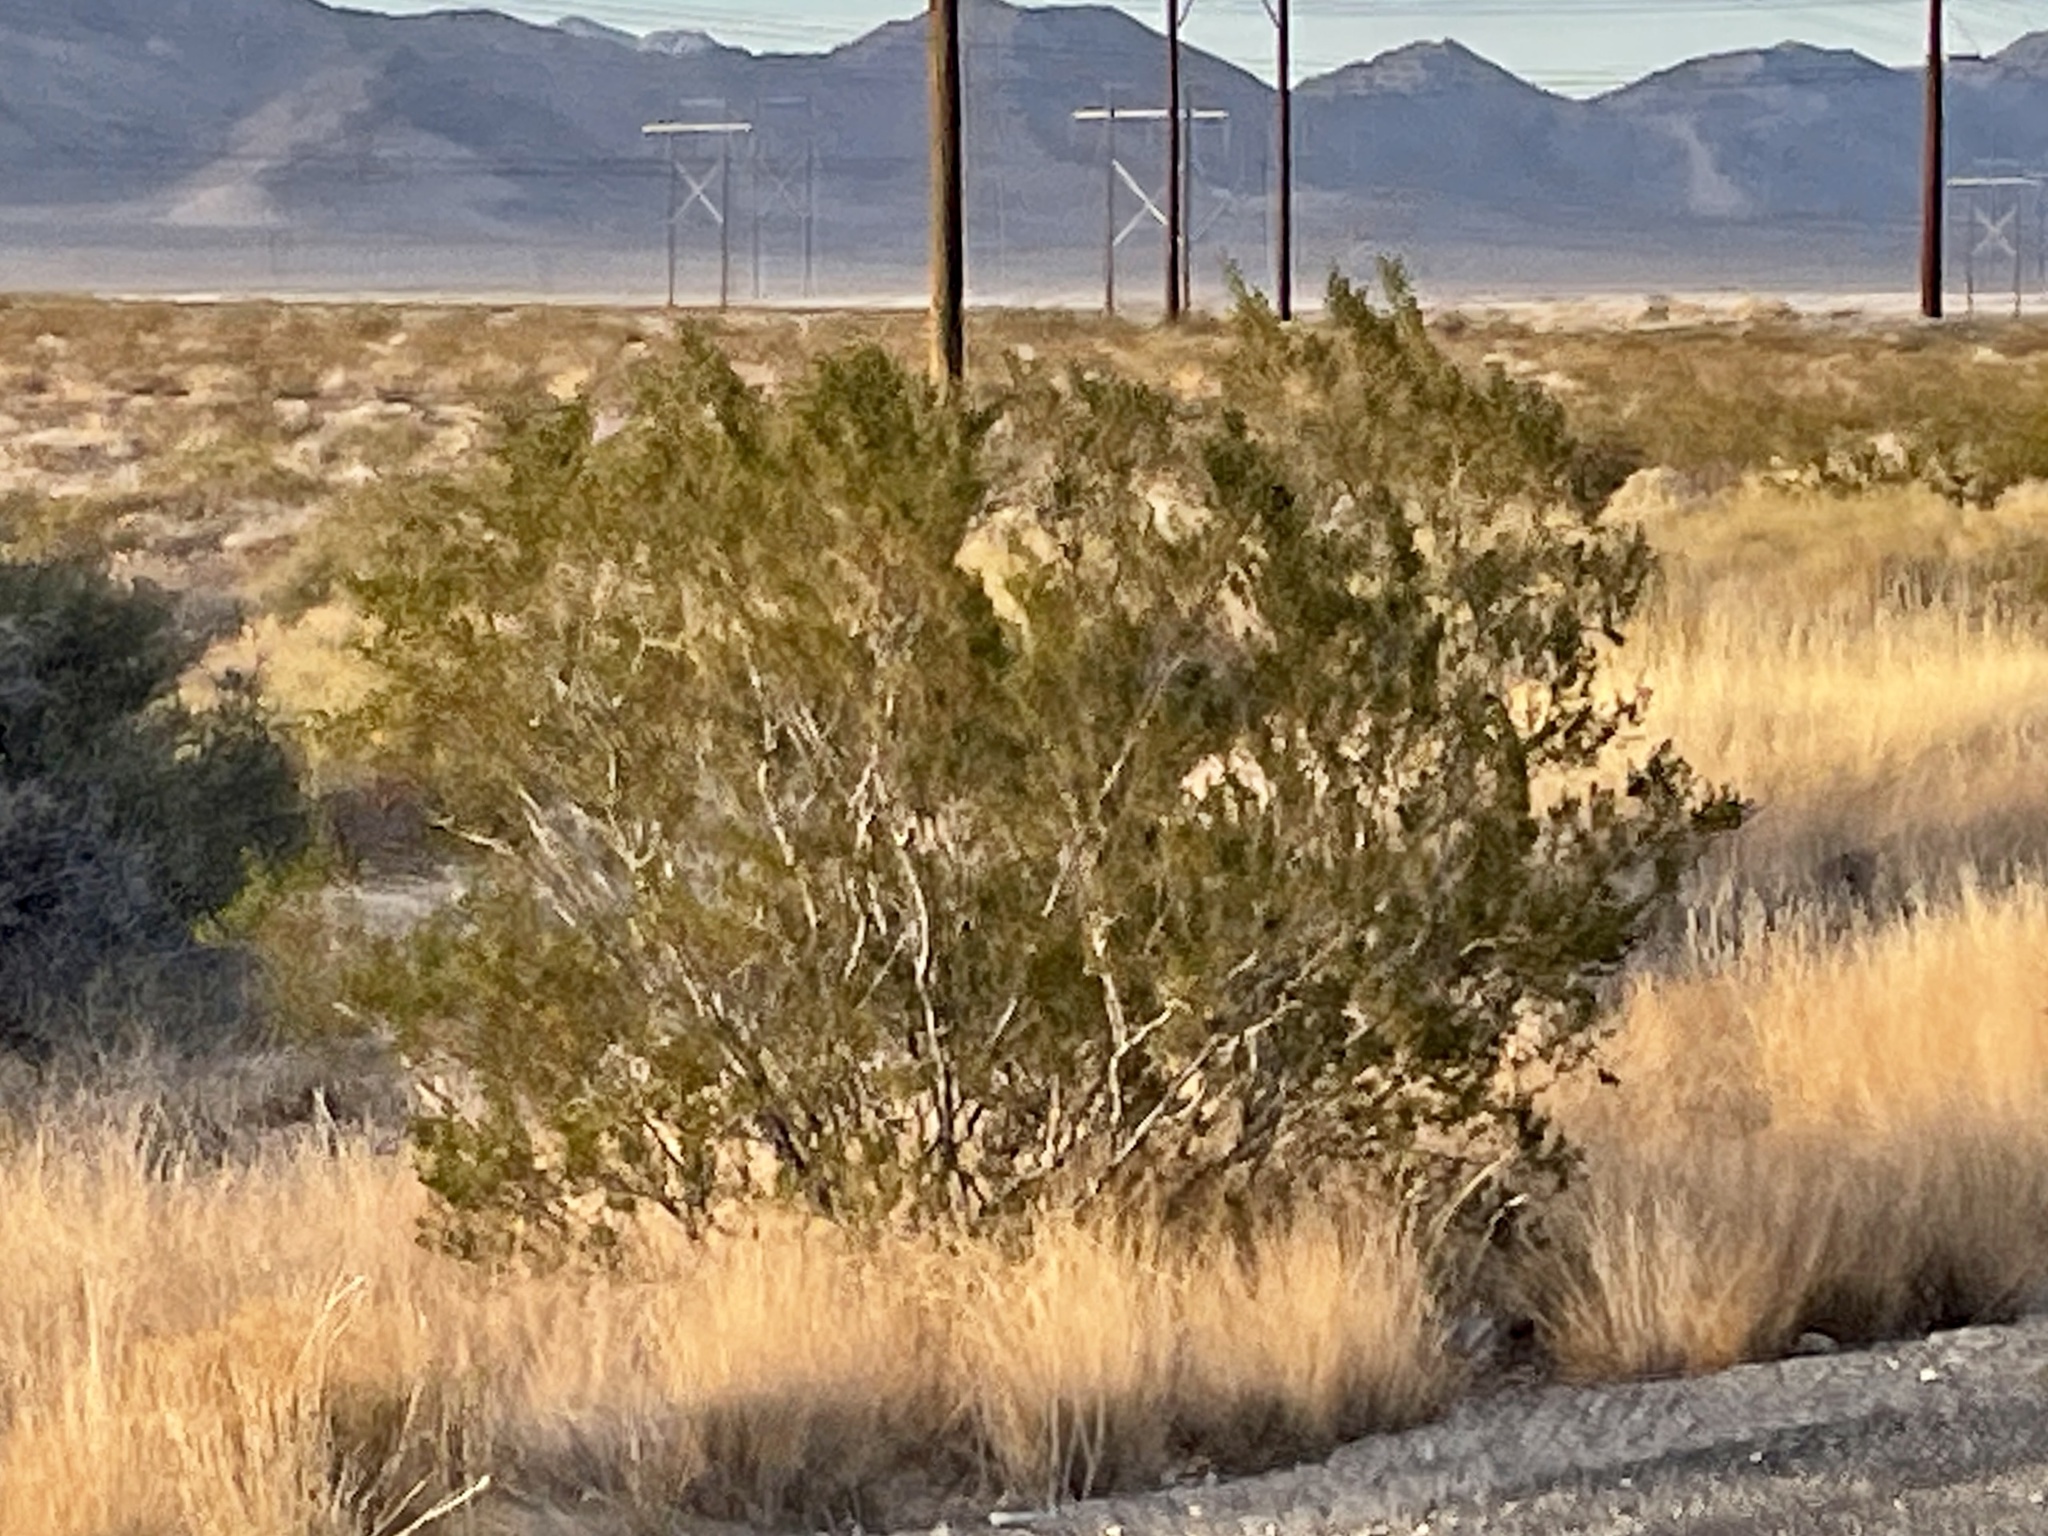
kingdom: Plantae
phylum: Tracheophyta
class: Magnoliopsida
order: Zygophyllales
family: Zygophyllaceae
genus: Larrea
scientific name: Larrea tridentata
